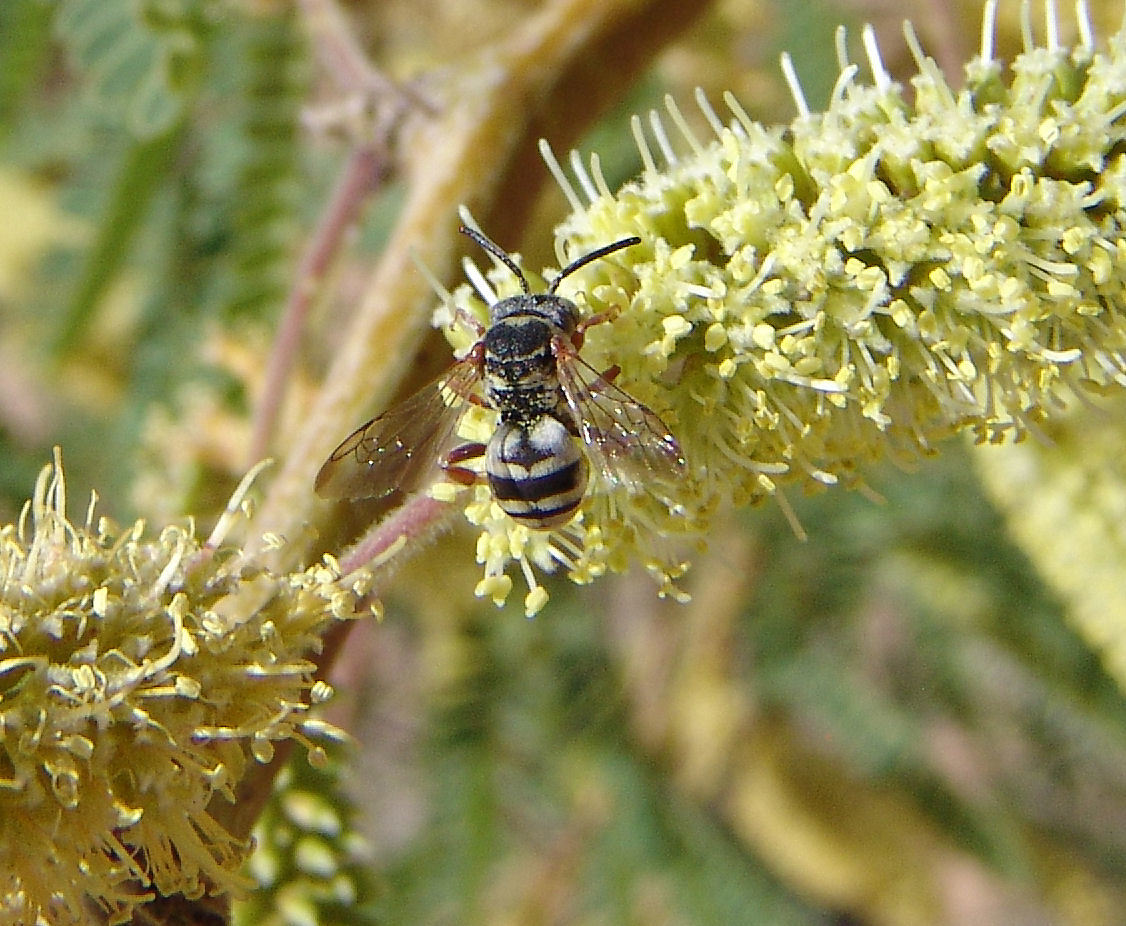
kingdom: Animalia
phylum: Arthropoda
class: Insecta
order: Hymenoptera
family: Apidae
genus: Epeolus
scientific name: Epeolus compactus
